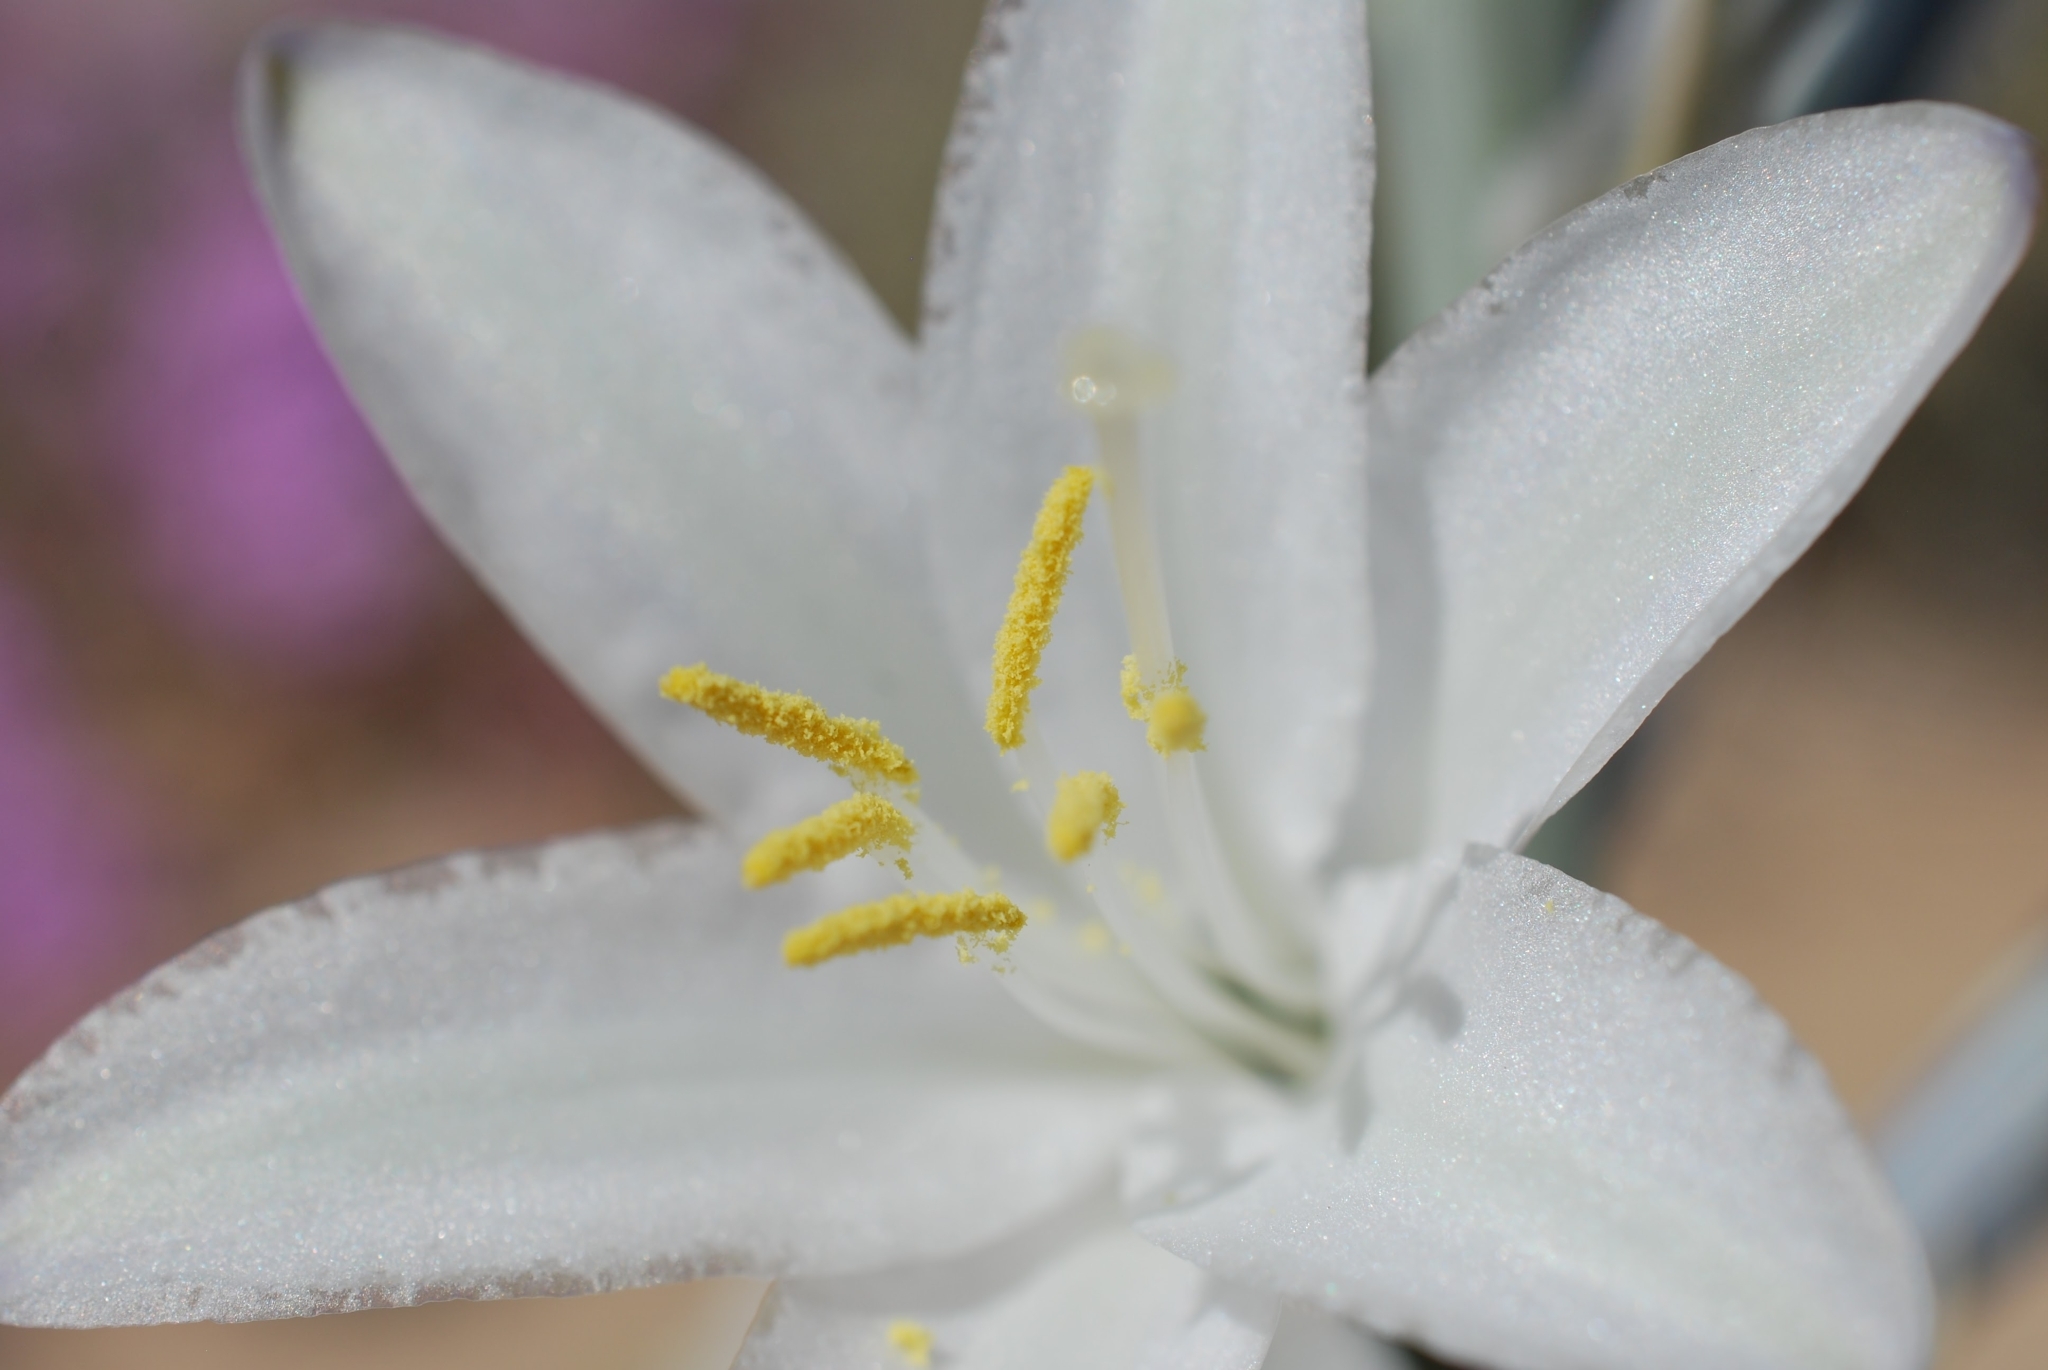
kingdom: Plantae
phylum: Tracheophyta
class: Liliopsida
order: Asparagales
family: Asparagaceae
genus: Hesperocallis
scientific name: Hesperocallis undulata
